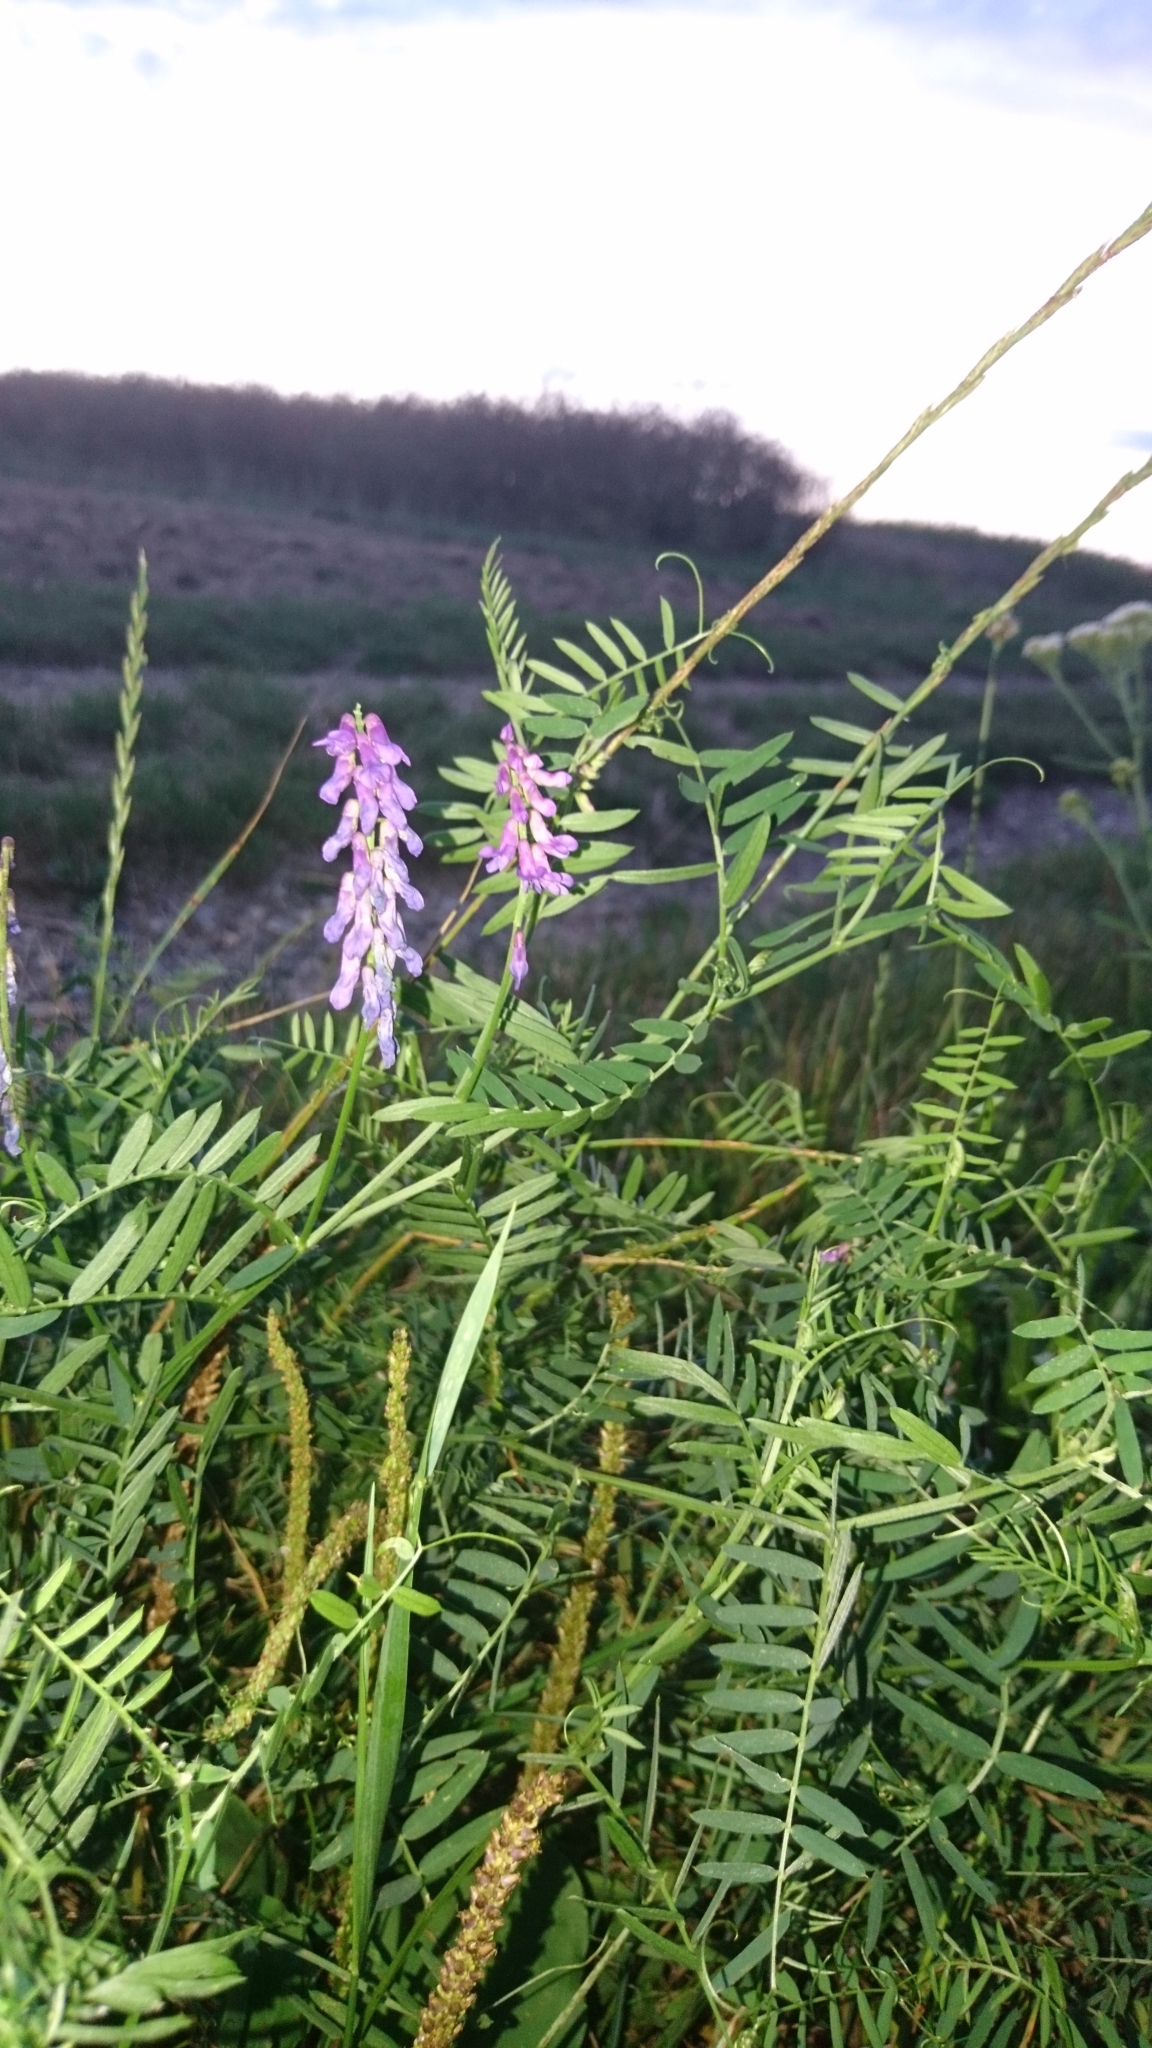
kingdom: Plantae
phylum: Tracheophyta
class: Magnoliopsida
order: Fabales
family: Fabaceae
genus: Vicia
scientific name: Vicia cracca
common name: Bird vetch
